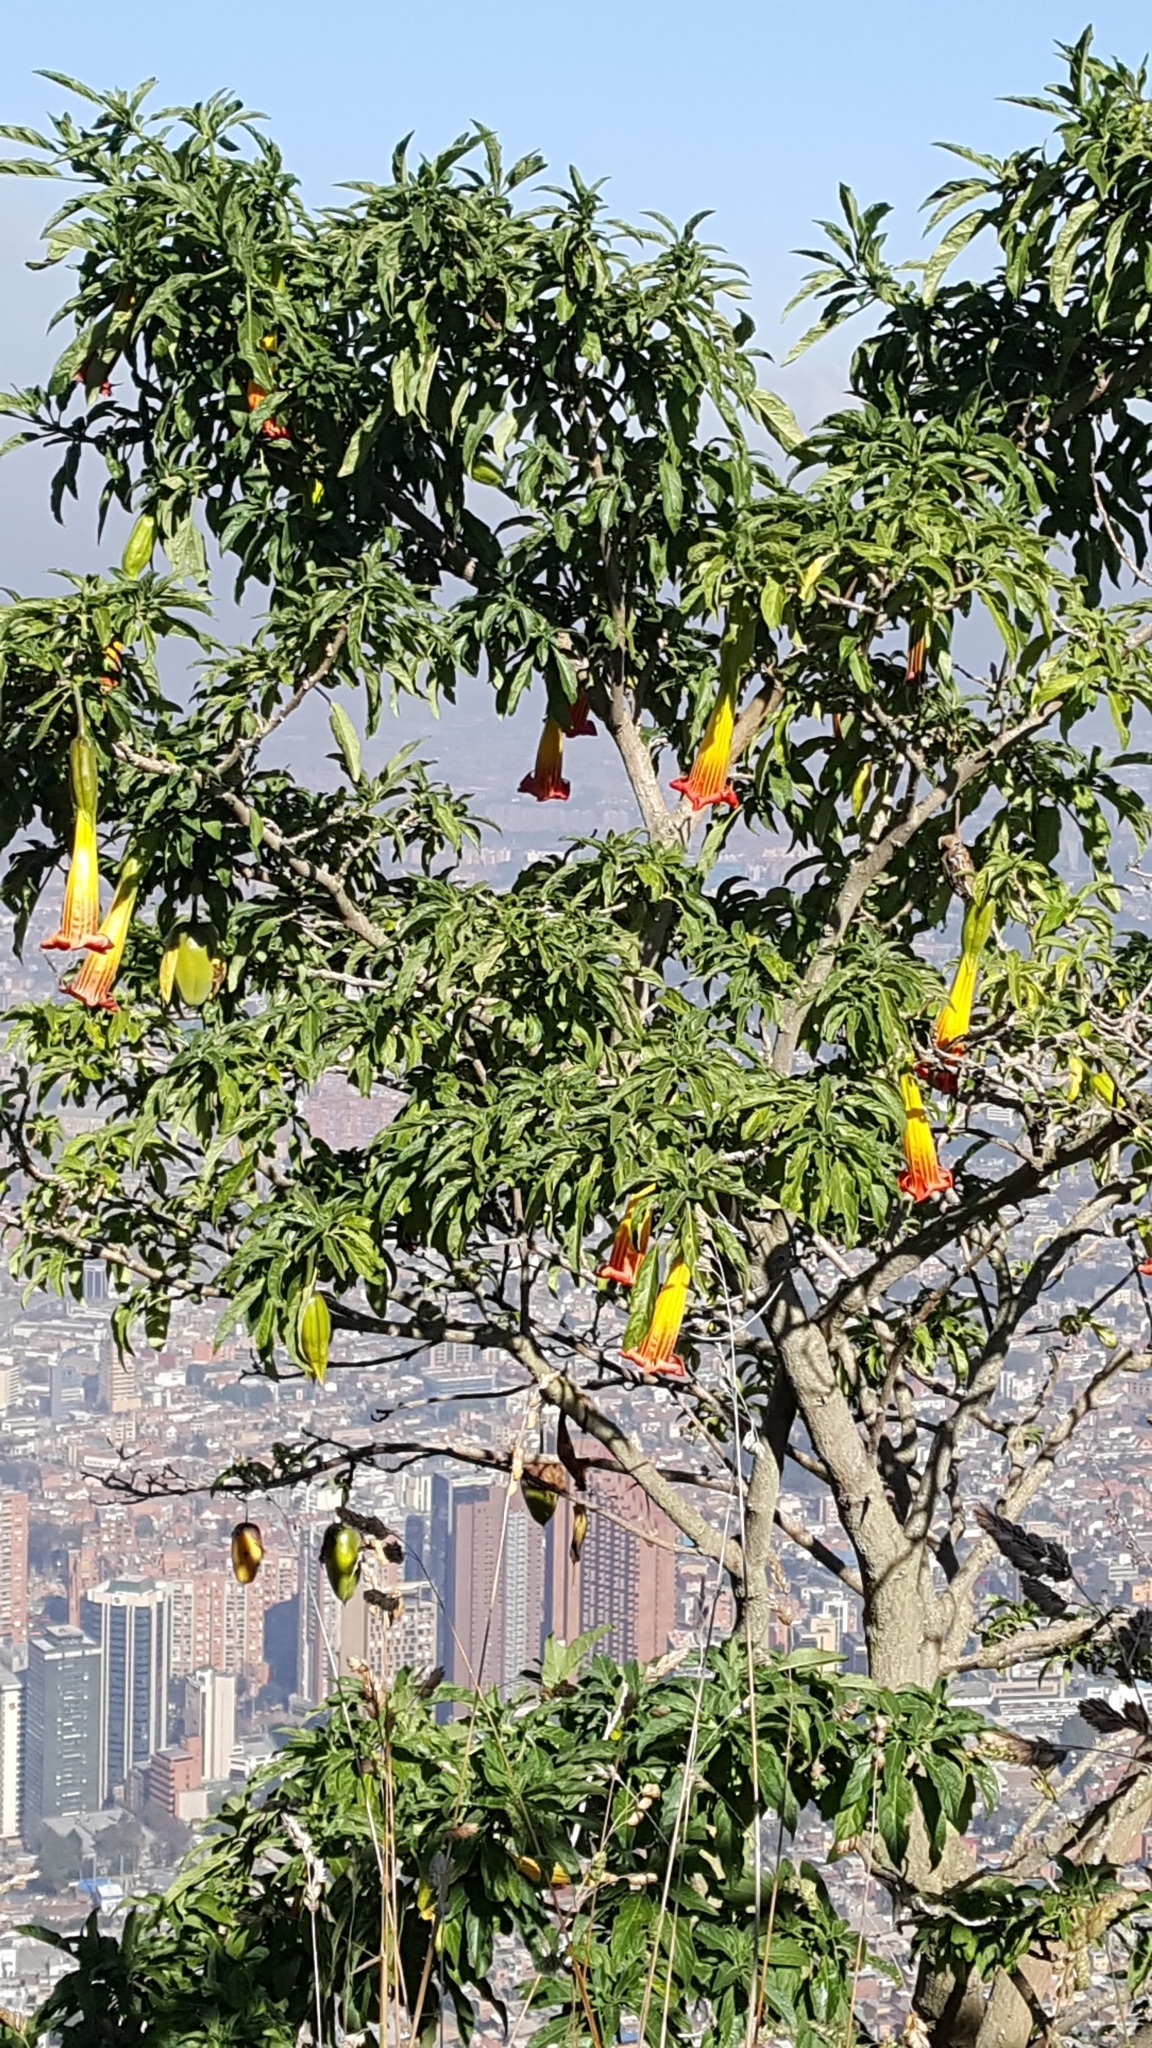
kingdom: Plantae
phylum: Tracheophyta
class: Magnoliopsida
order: Solanales
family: Solanaceae
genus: Brugmansia
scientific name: Brugmansia sanguinea
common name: Red floripontio
